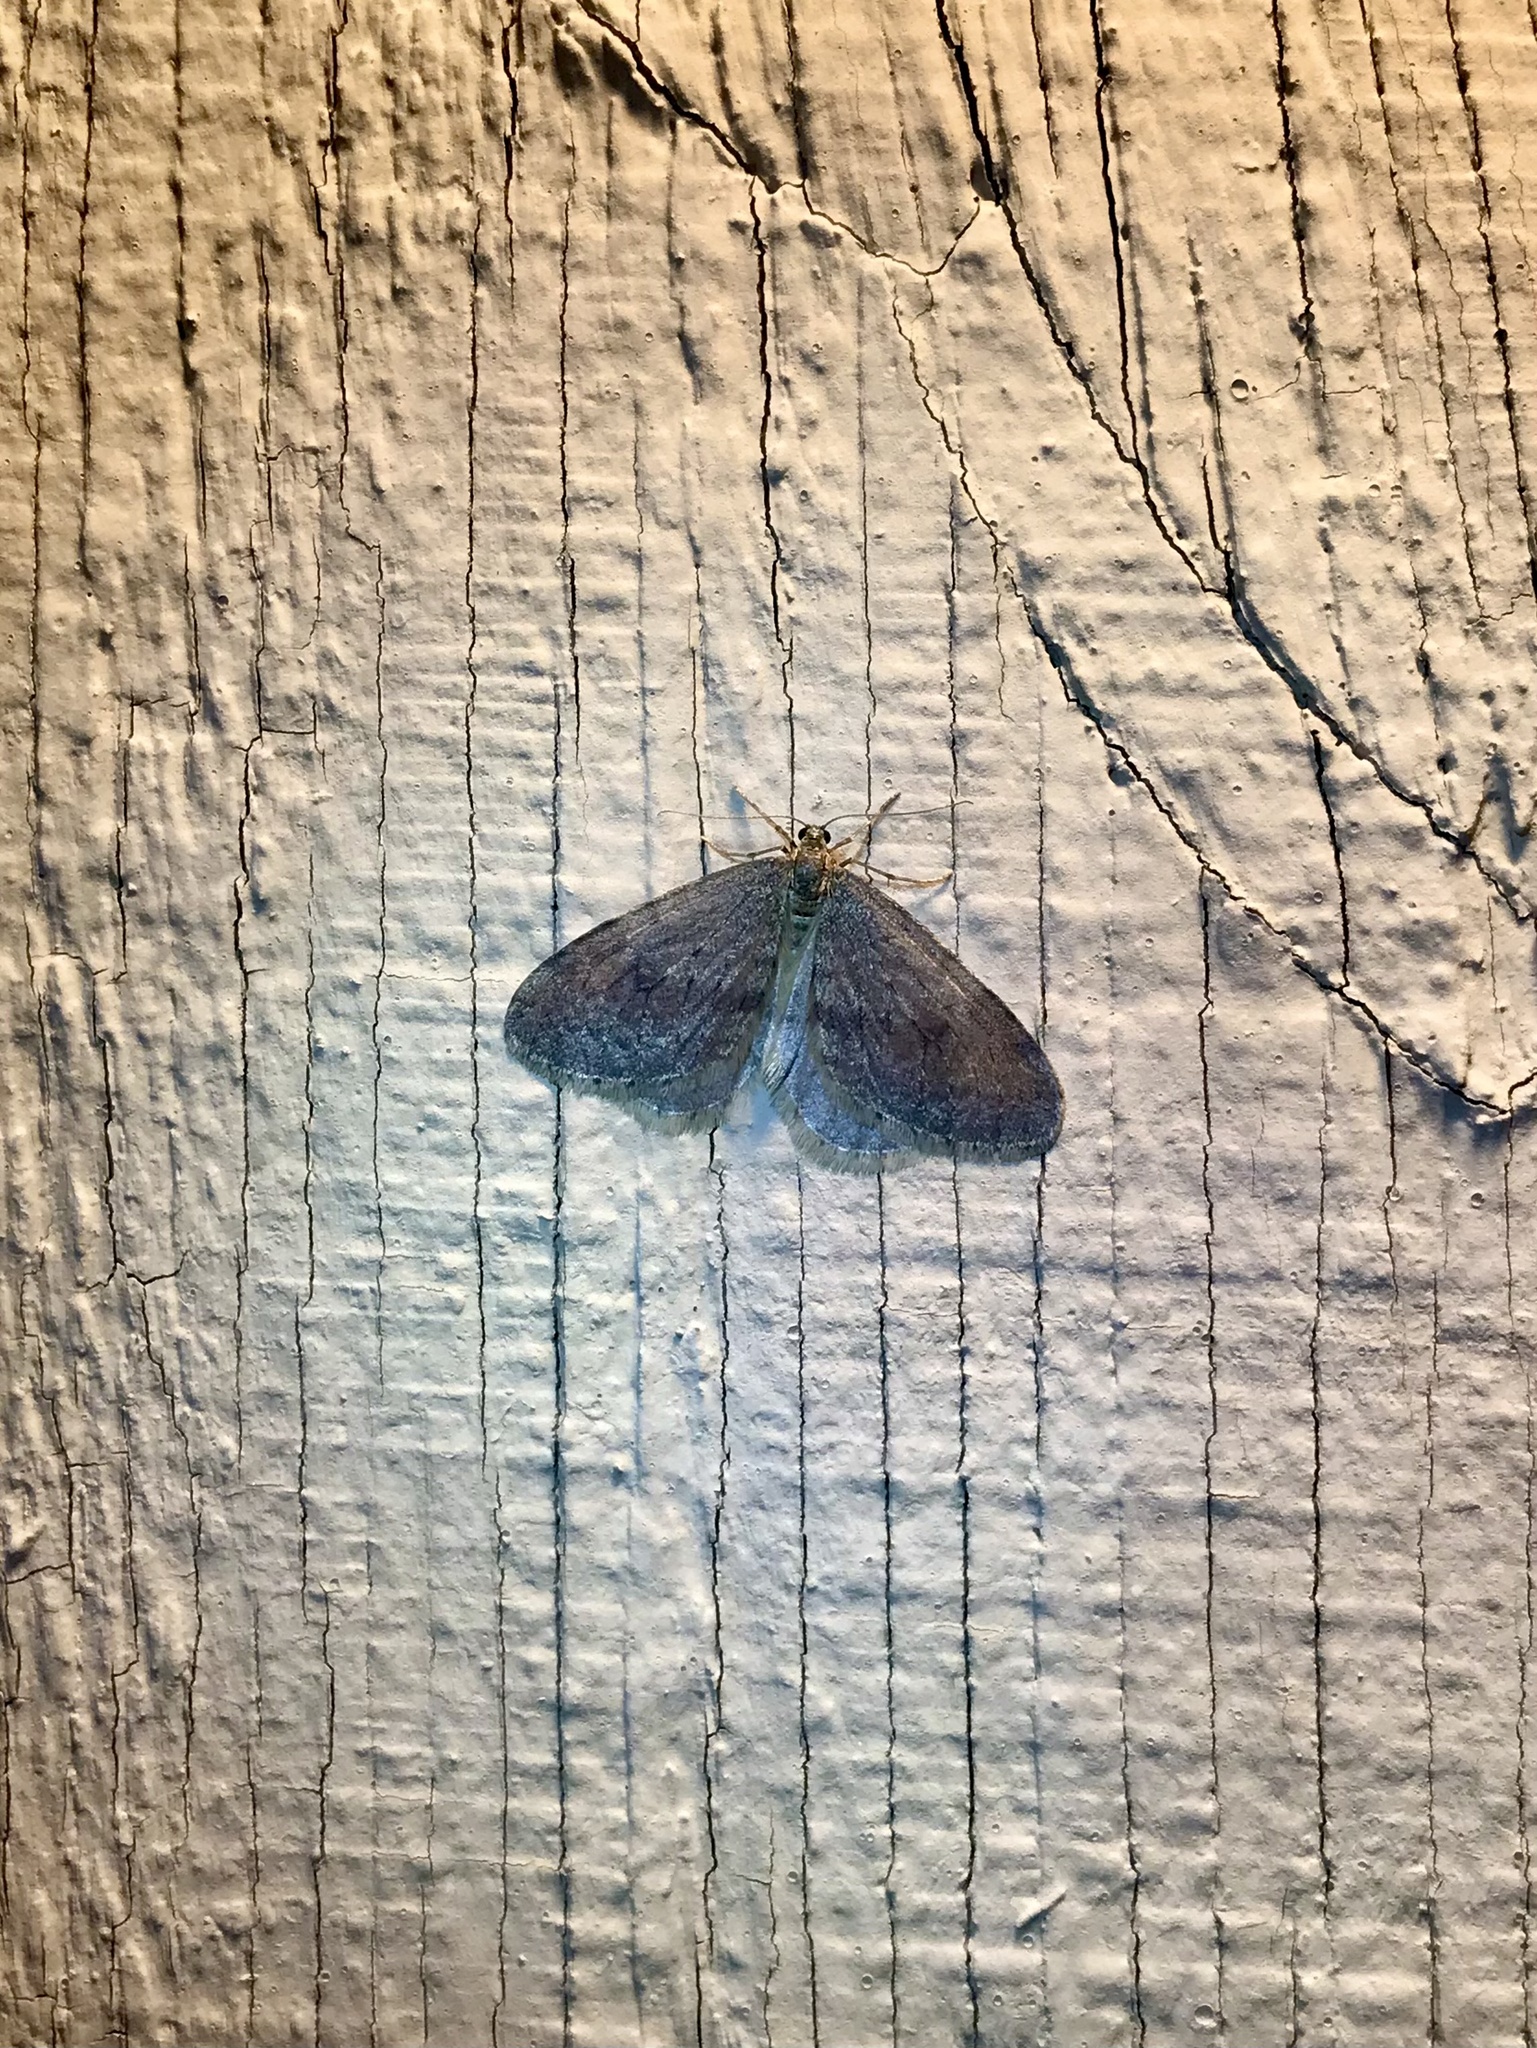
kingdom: Animalia
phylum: Arthropoda
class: Insecta
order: Lepidoptera
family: Geometridae
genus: Operophtera
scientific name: Operophtera bruceata
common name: Bruce spanworm
